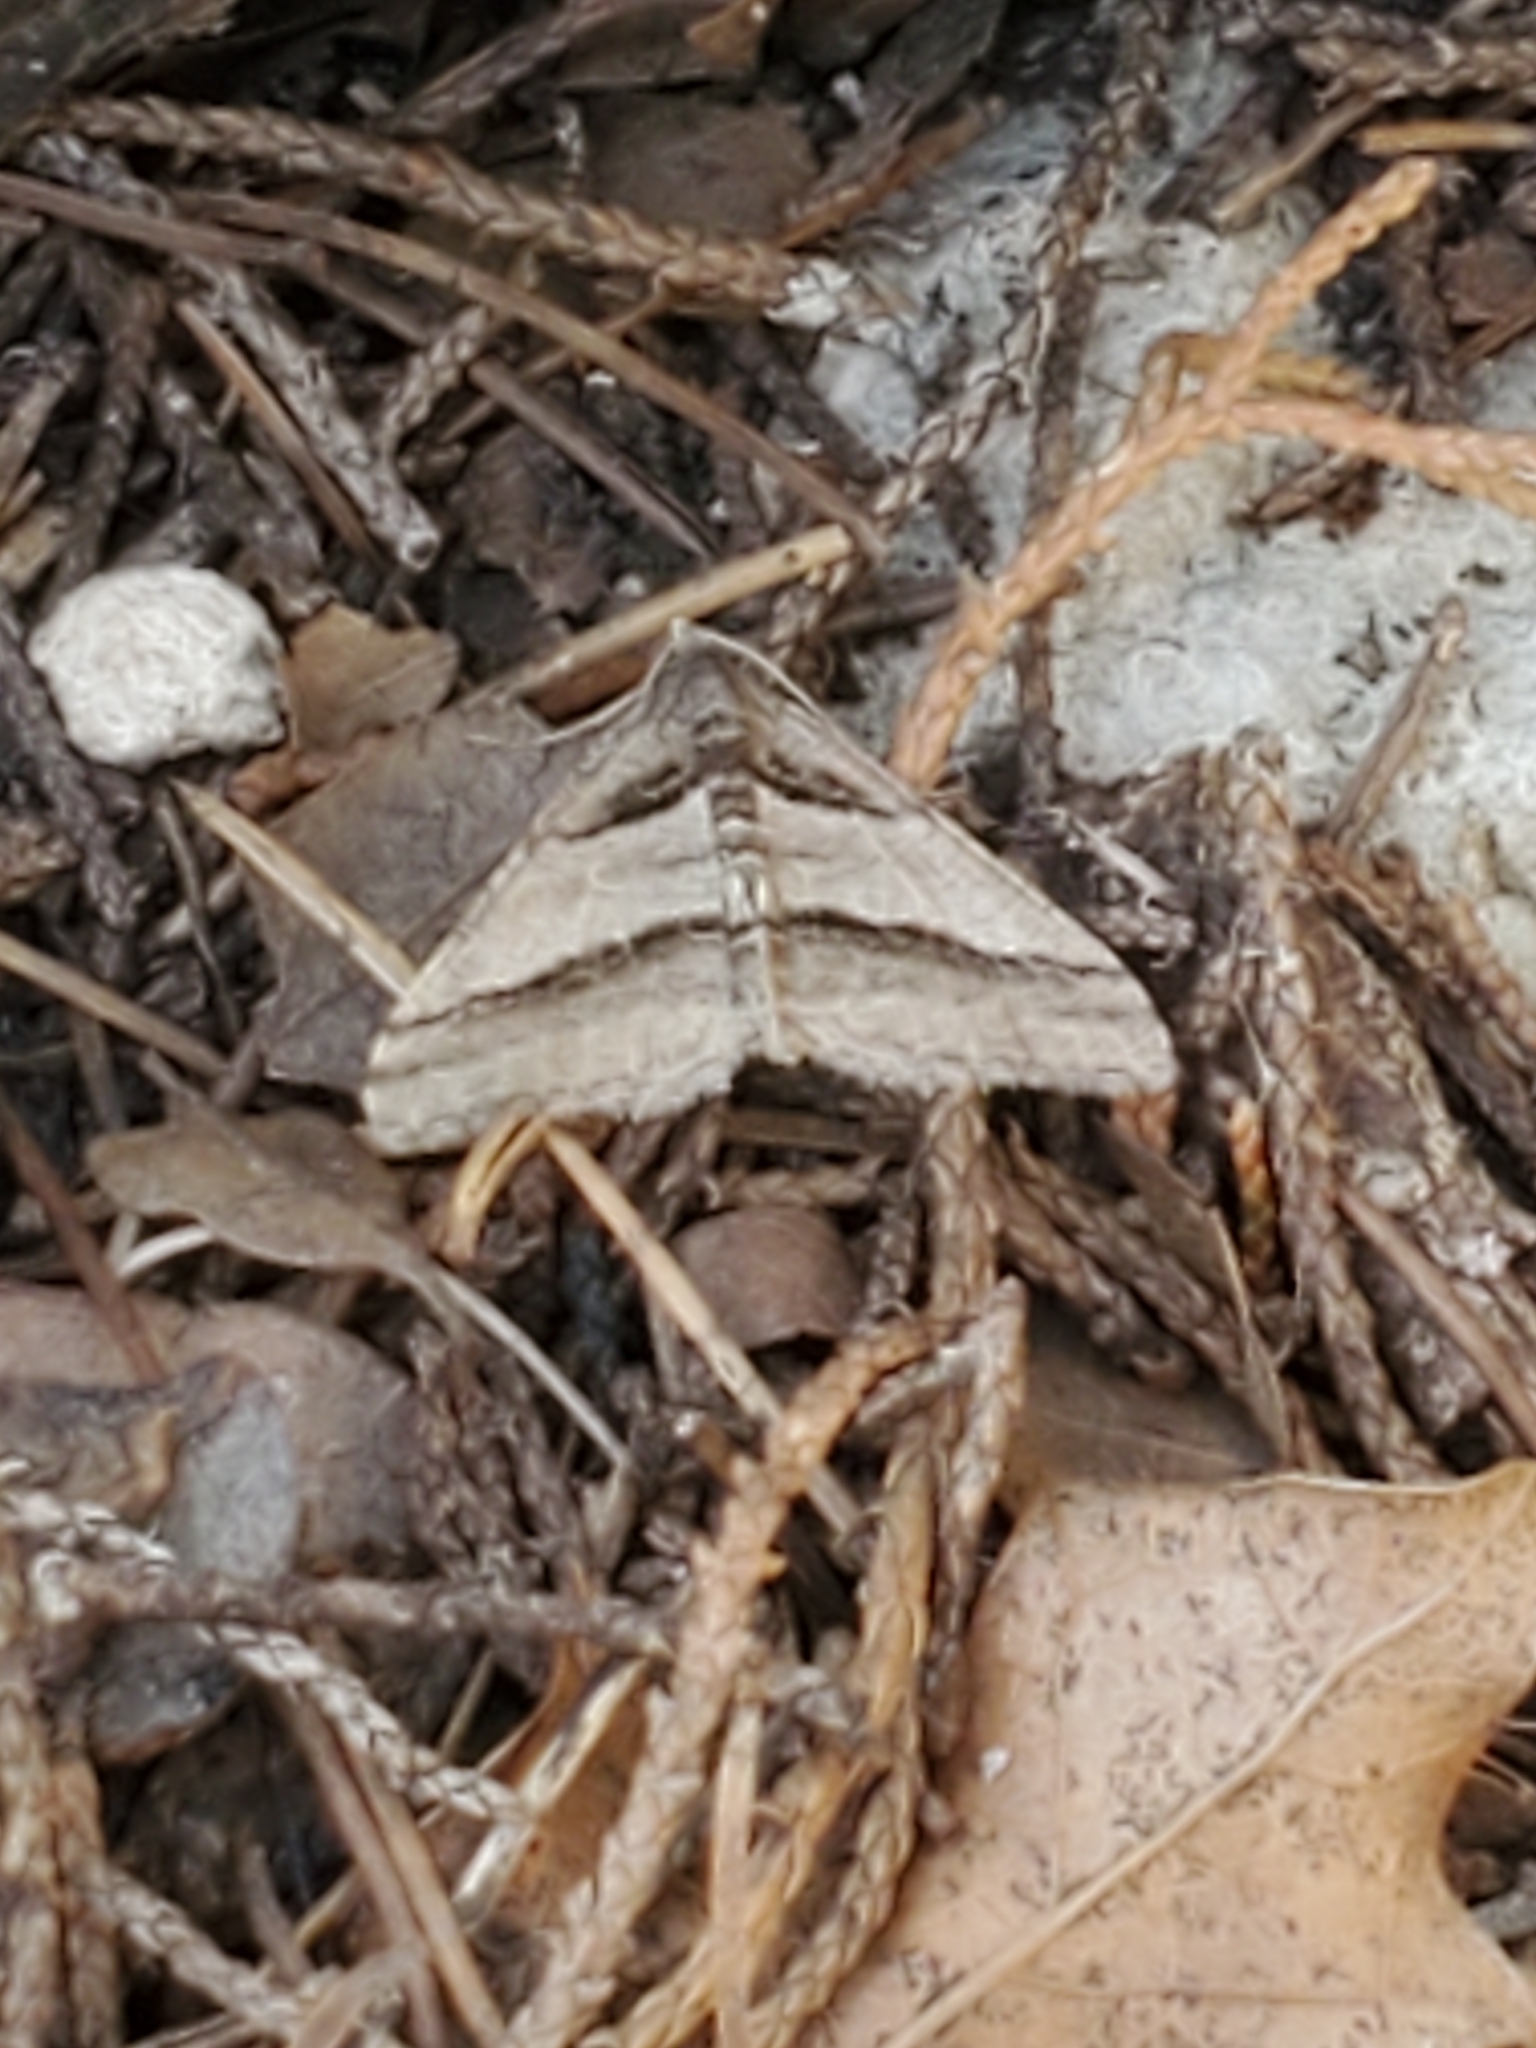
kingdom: Animalia
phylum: Arthropoda
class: Insecta
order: Lepidoptera
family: Geometridae
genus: Digrammia
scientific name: Digrammia atrofasciata
